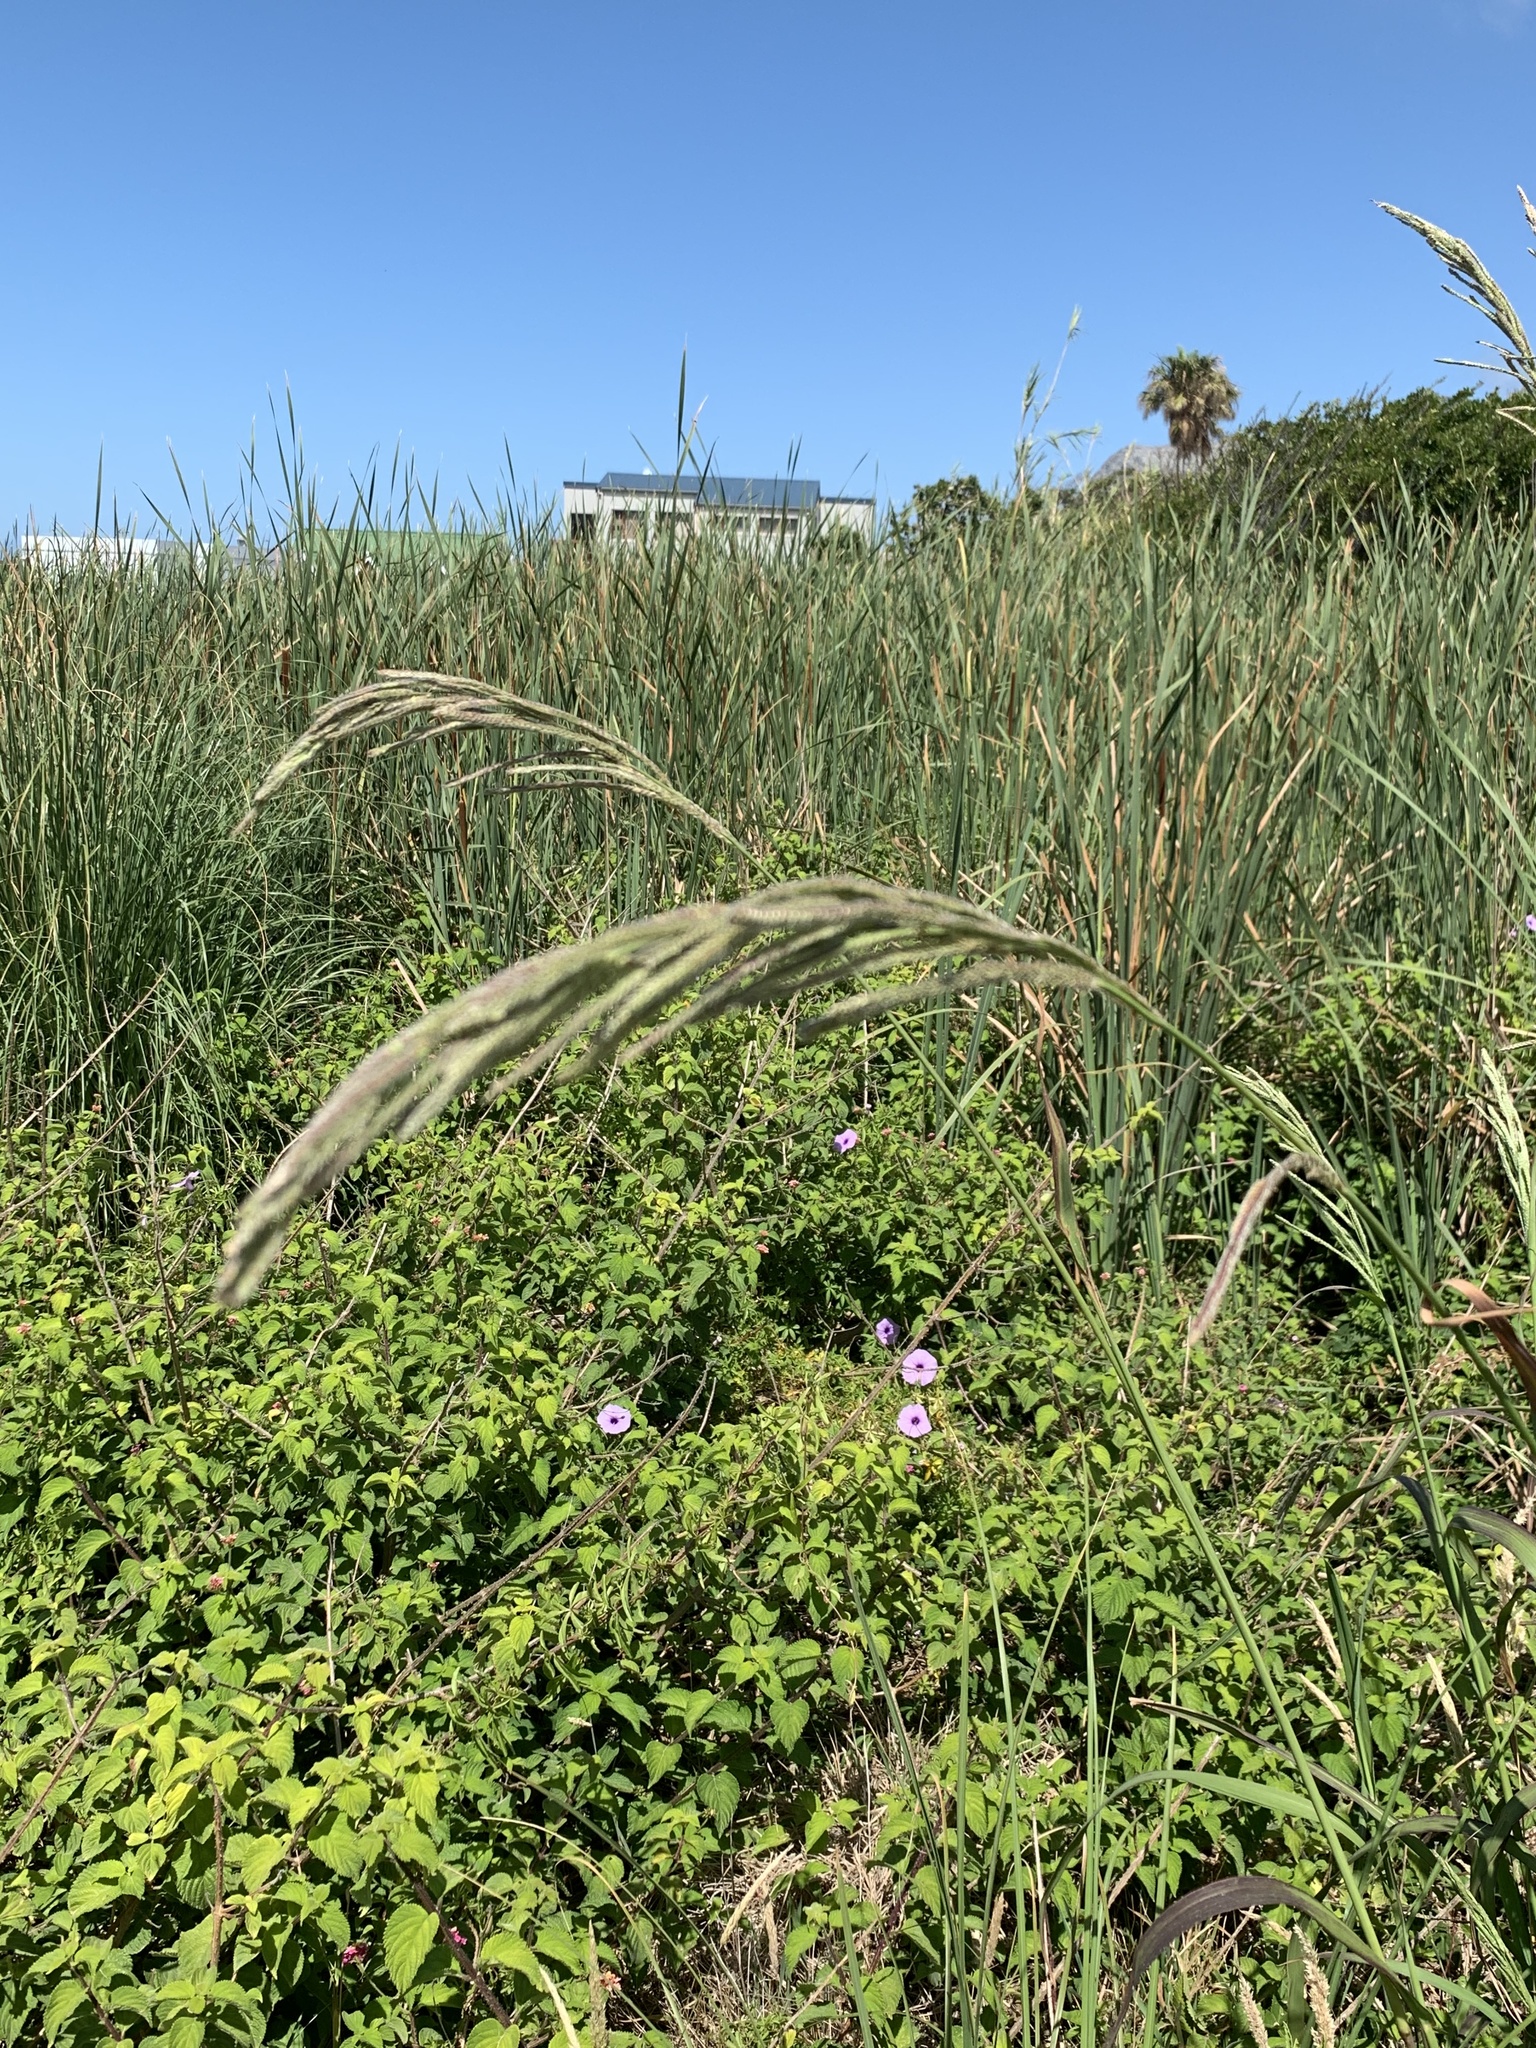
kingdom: Plantae
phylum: Tracheophyta
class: Liliopsida
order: Poales
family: Poaceae
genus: Paspalum
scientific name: Paspalum urvillei
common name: Vasey's grass
